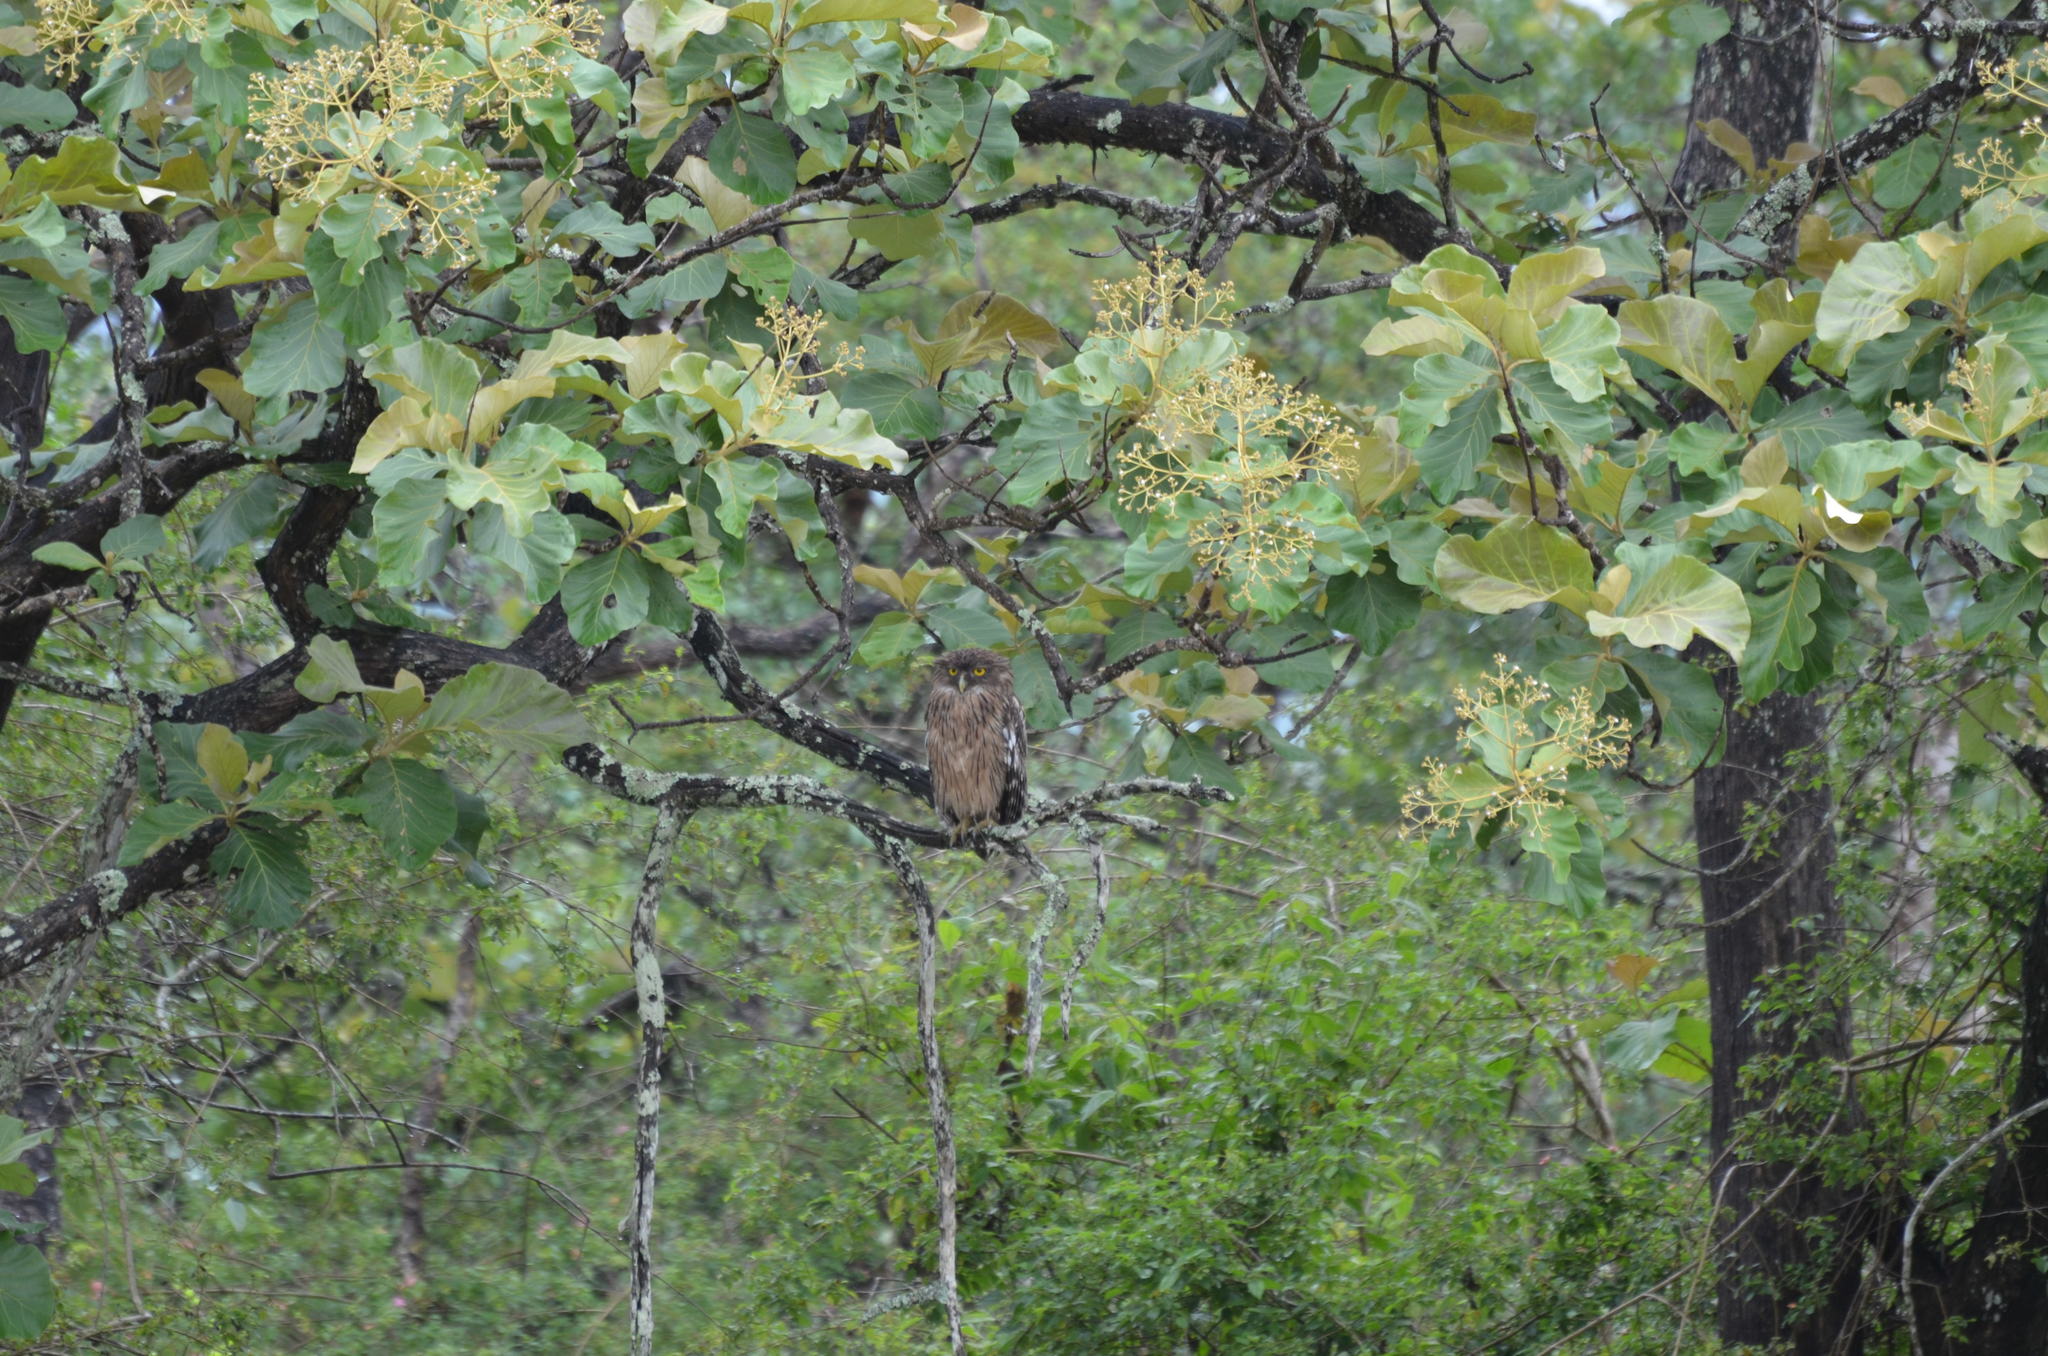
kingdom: Animalia
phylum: Chordata
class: Aves
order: Strigiformes
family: Strigidae
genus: Ketupa
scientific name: Ketupa zeylonensis
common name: Brown fish owl
